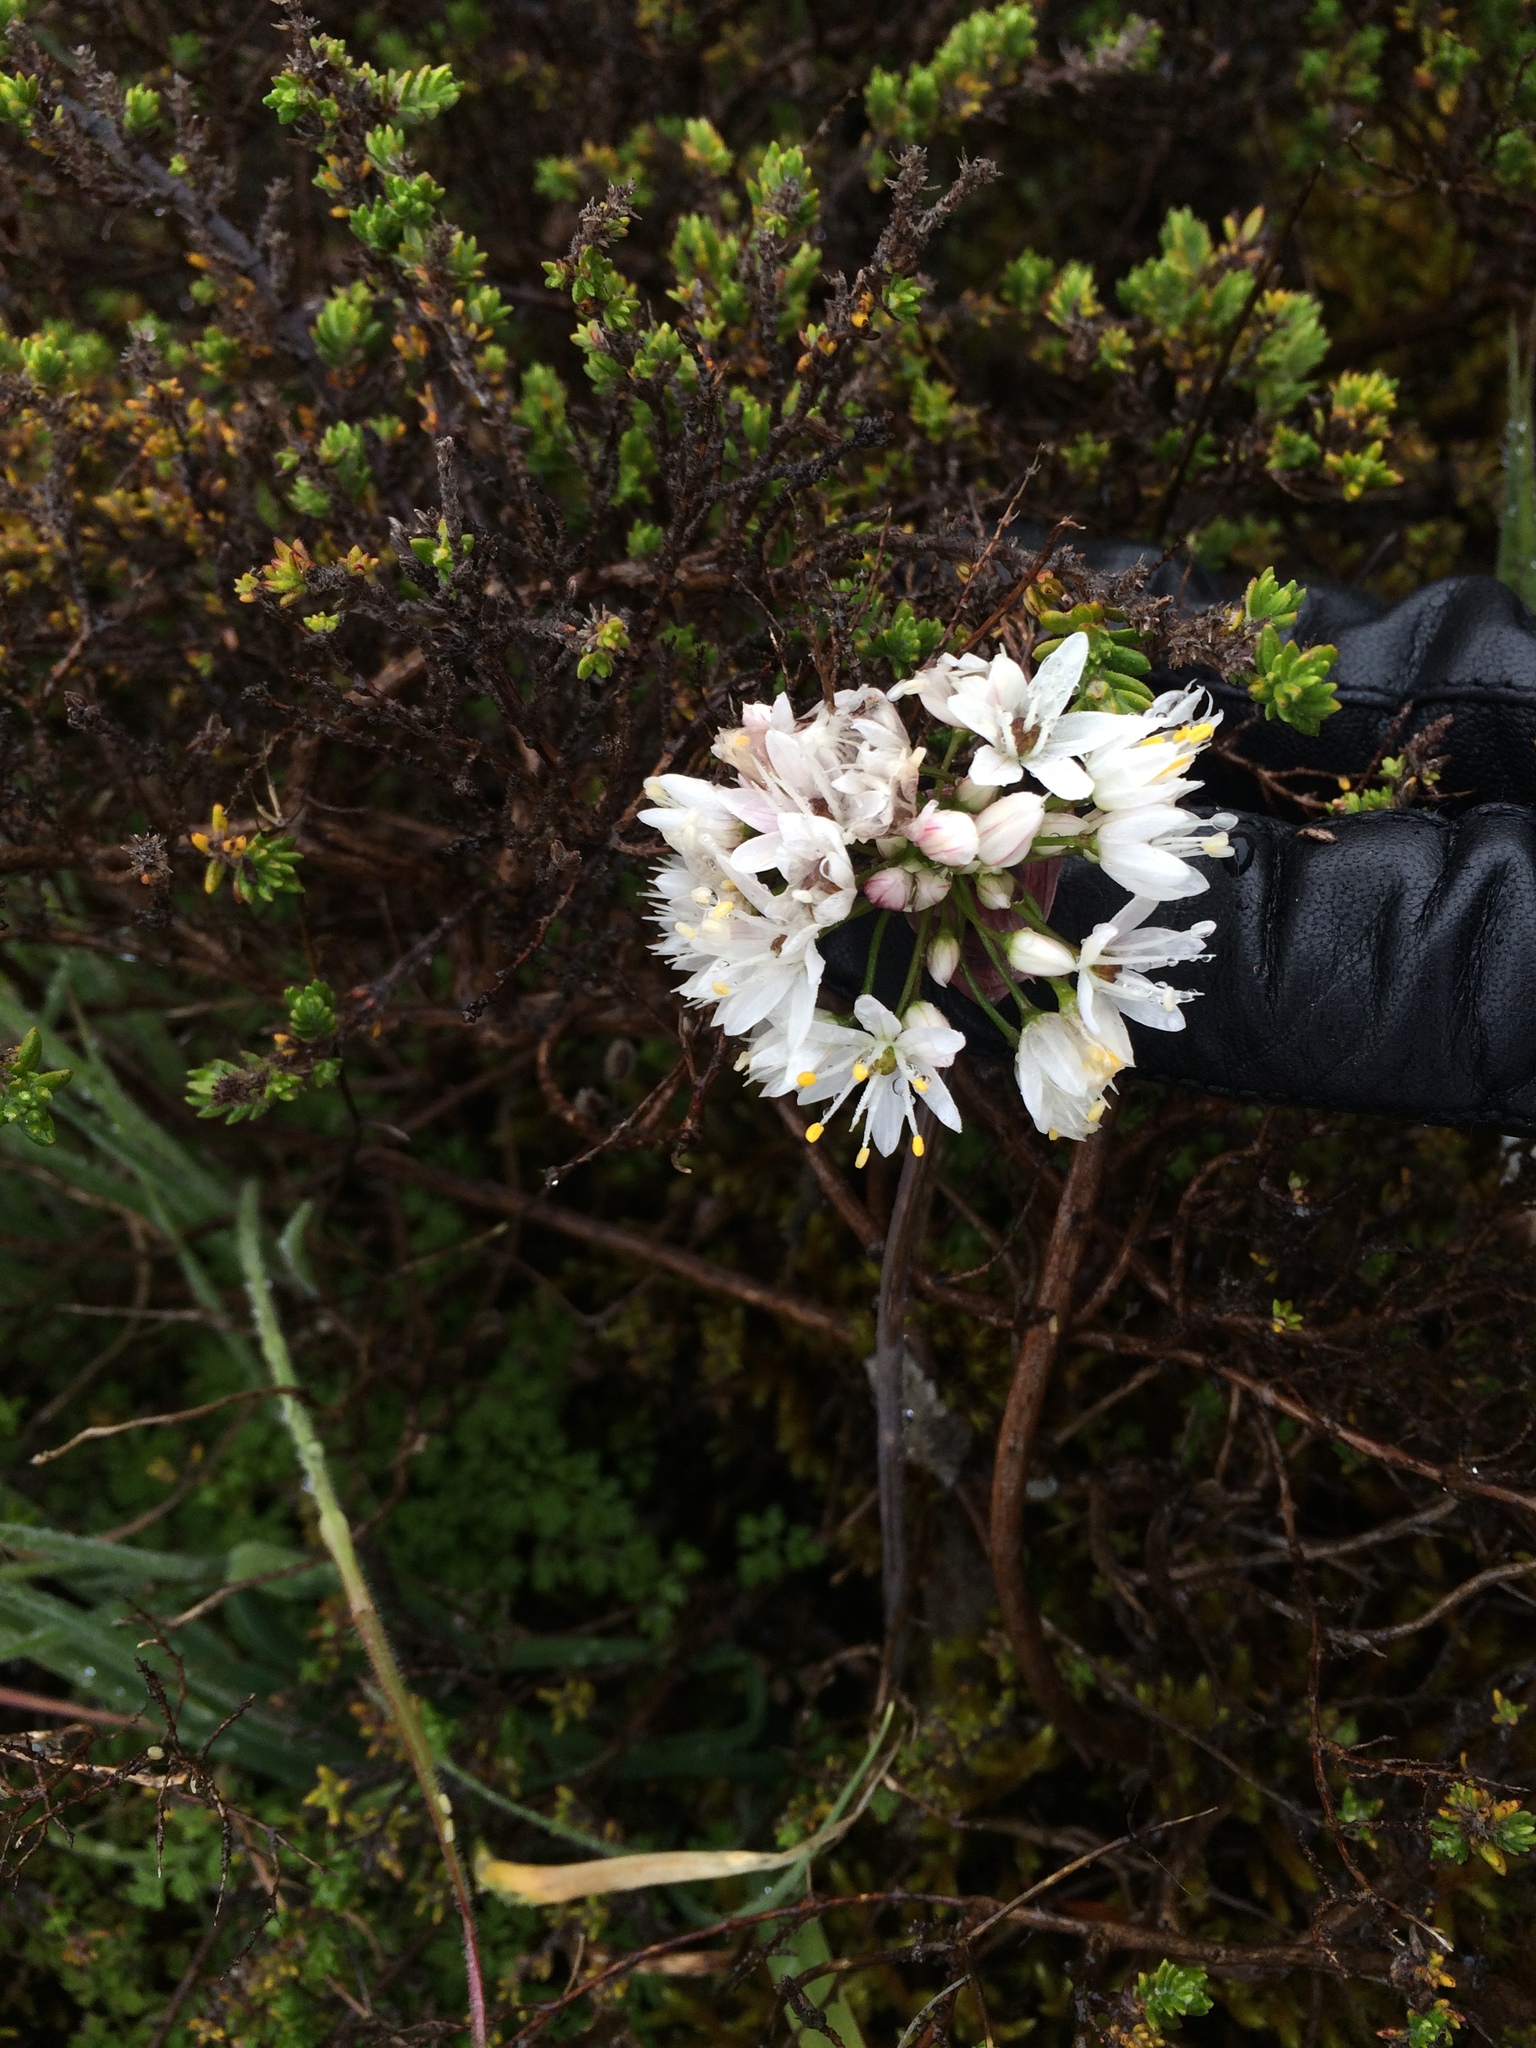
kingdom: Plantae
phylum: Tracheophyta
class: Liliopsida
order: Asparagales
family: Amaryllidaceae
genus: Allium
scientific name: Allium canariense
